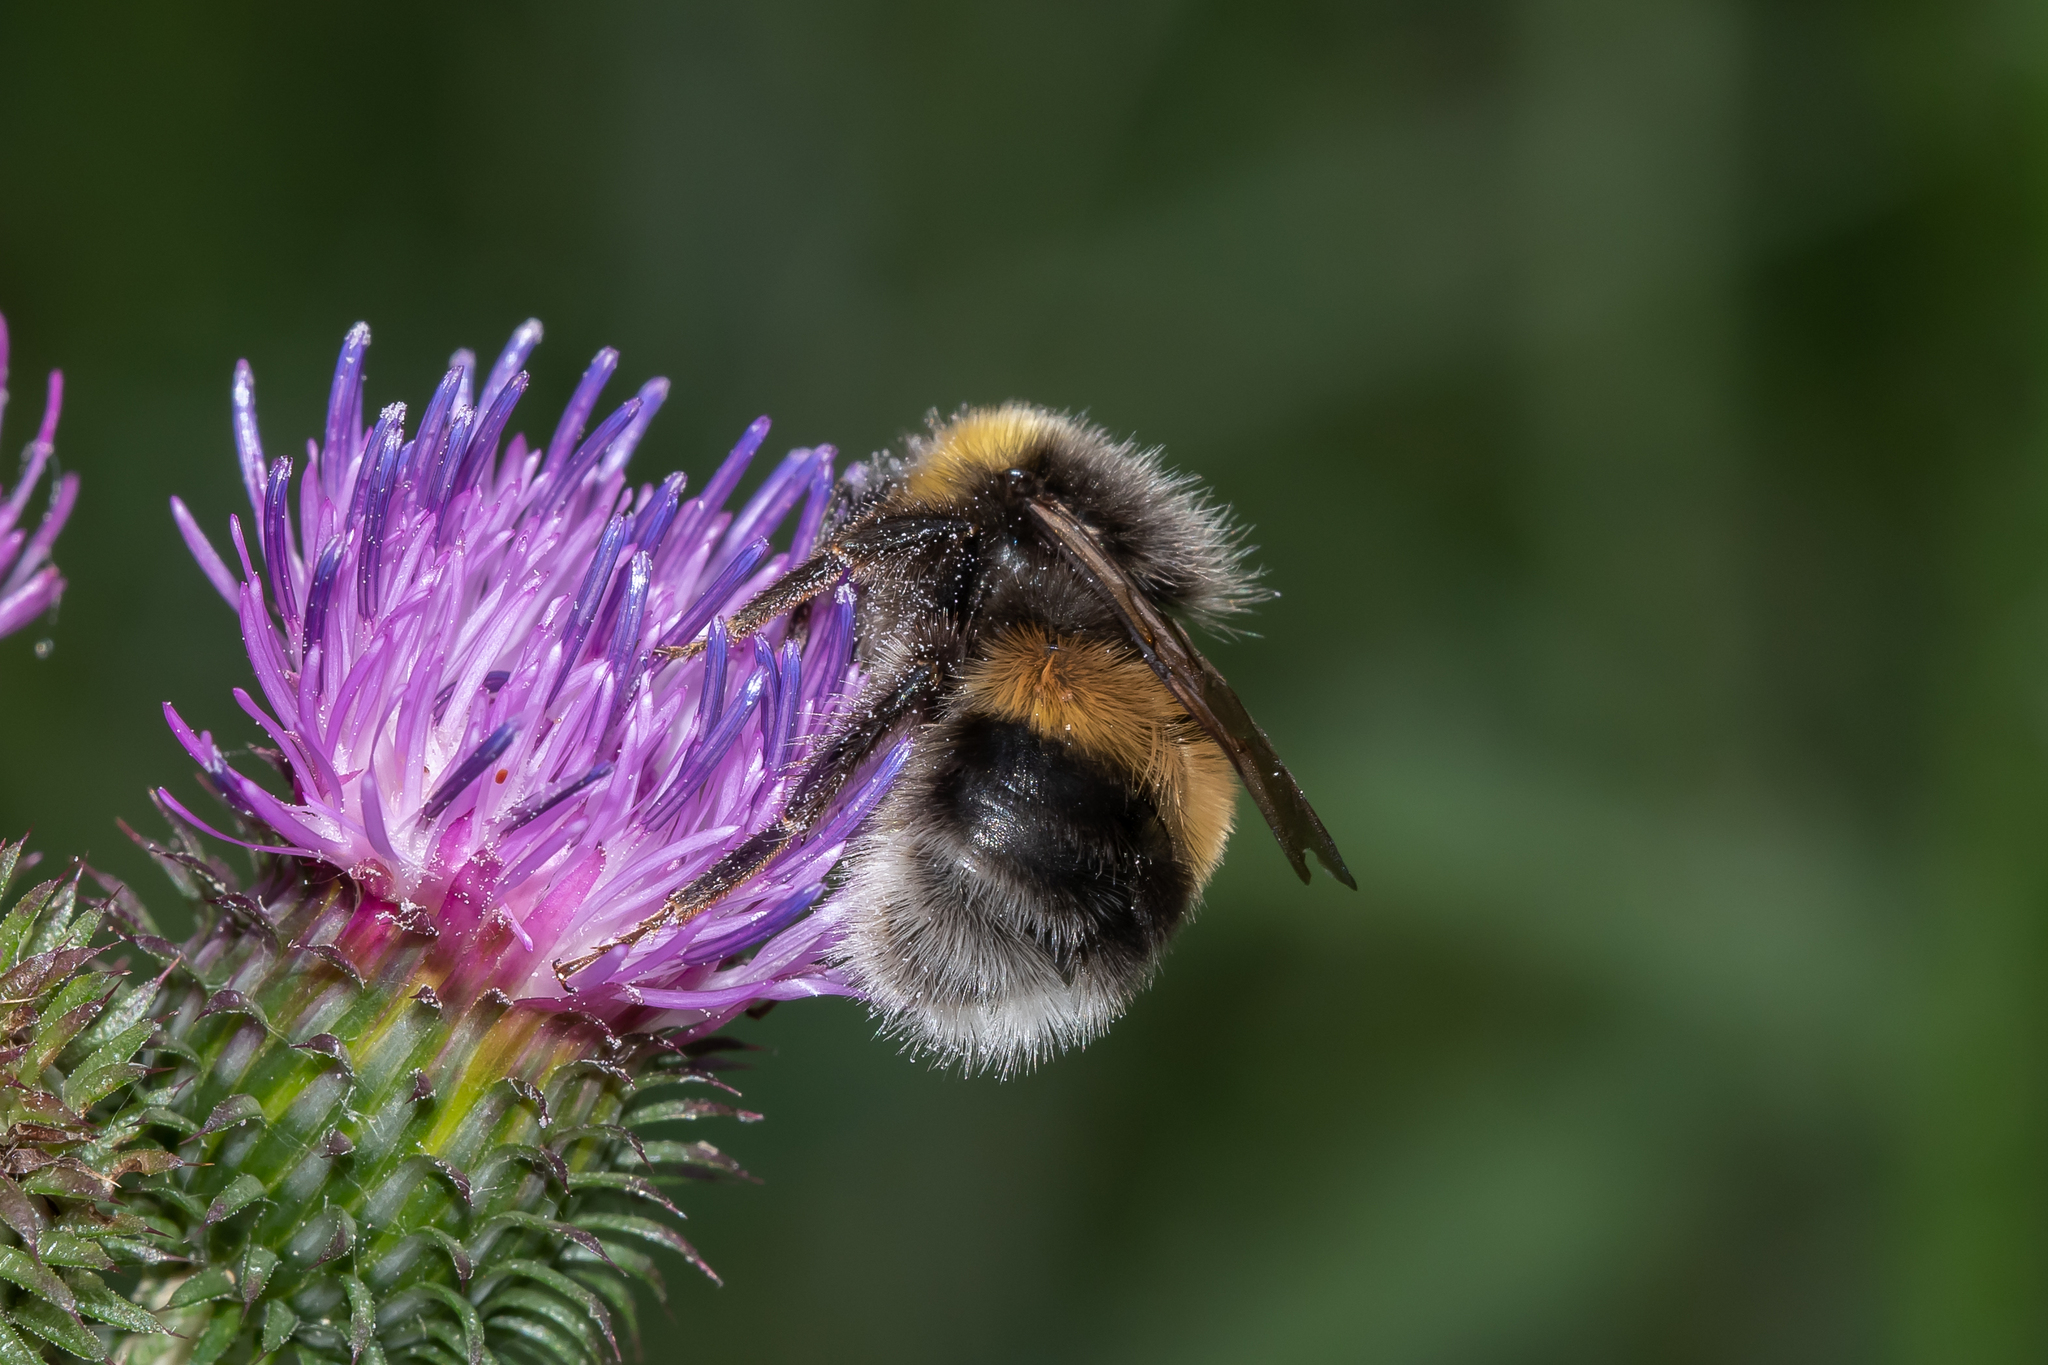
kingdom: Animalia
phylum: Arthropoda
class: Insecta
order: Hymenoptera
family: Apidae
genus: Bombus
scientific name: Bombus lucorum
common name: White-tailed bumblebee
